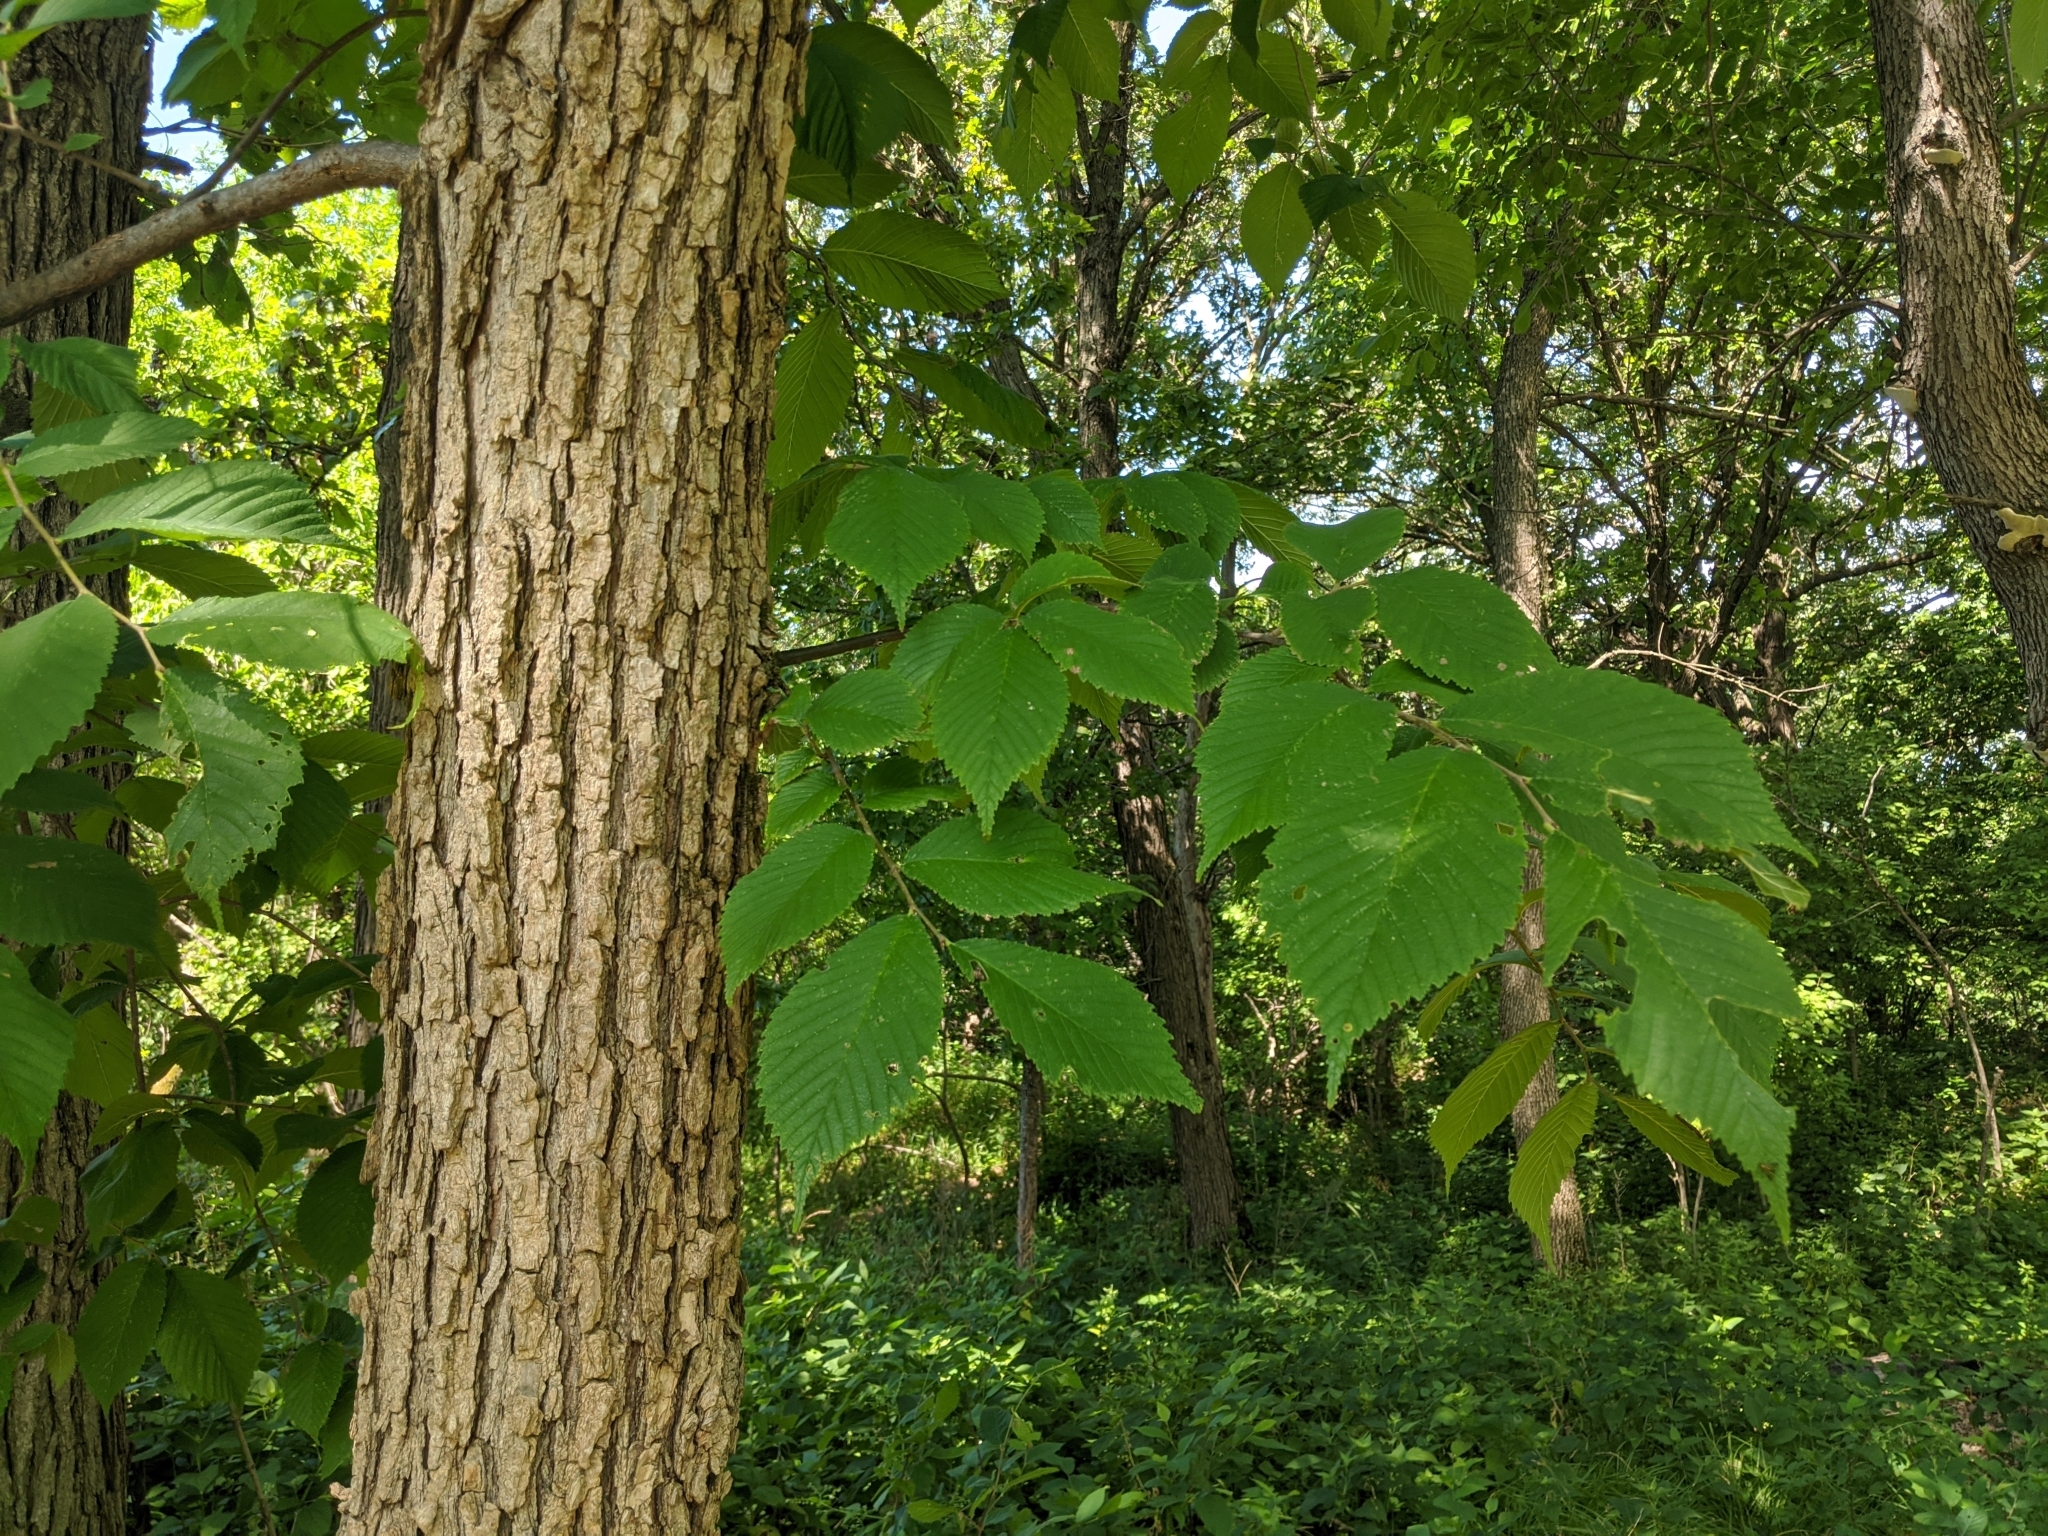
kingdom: Plantae
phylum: Tracheophyta
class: Magnoliopsida
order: Rosales
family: Ulmaceae
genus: Ulmus
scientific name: Ulmus rubra
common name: Slippery elm
